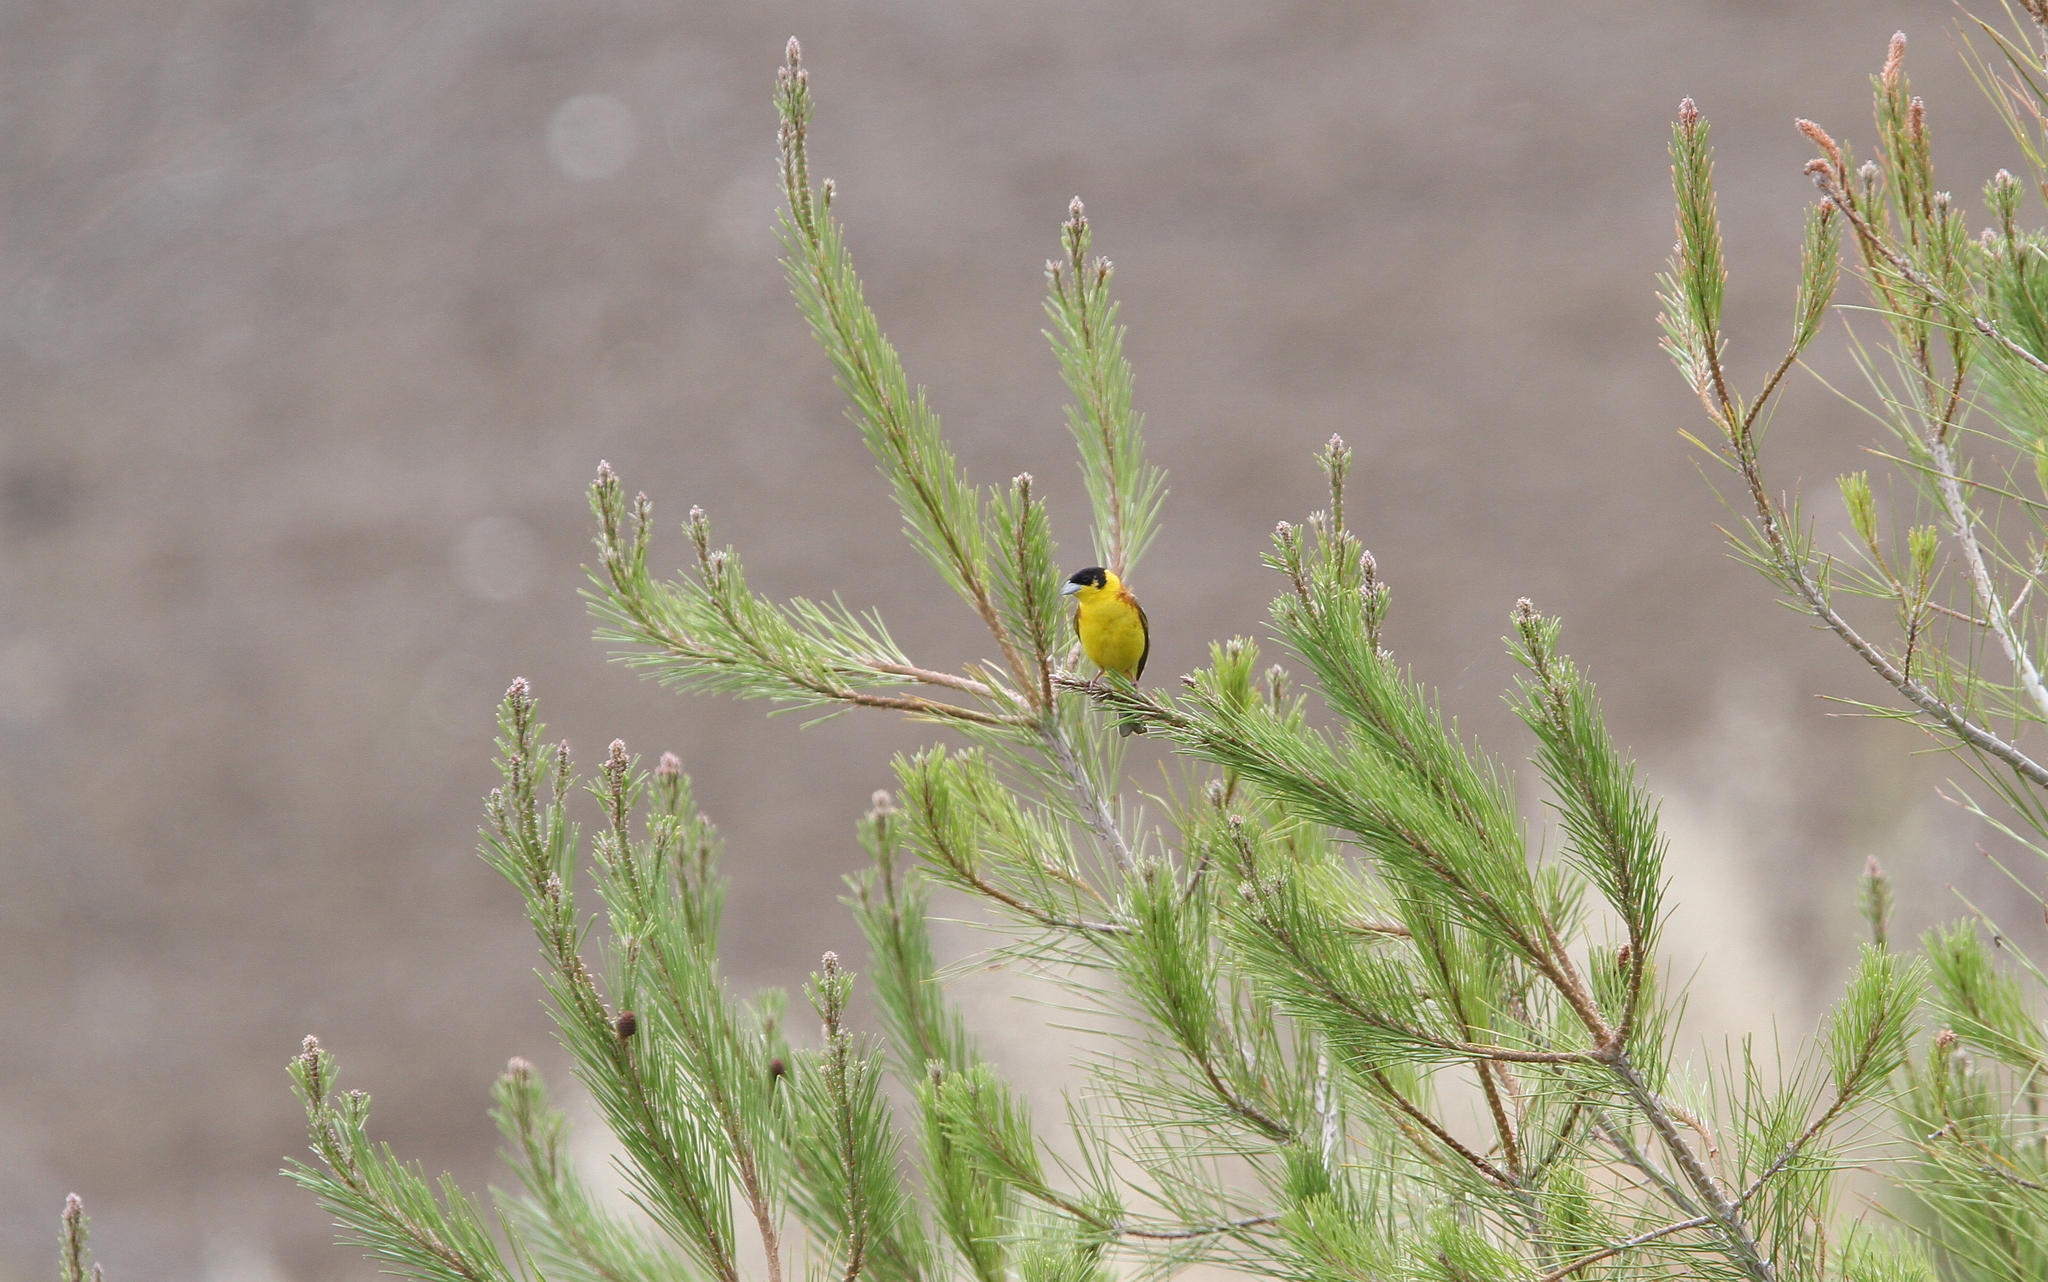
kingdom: Animalia
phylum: Chordata
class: Aves
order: Passeriformes
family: Emberizidae
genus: Emberiza
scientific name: Emberiza melanocephala
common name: Black-headed bunting
